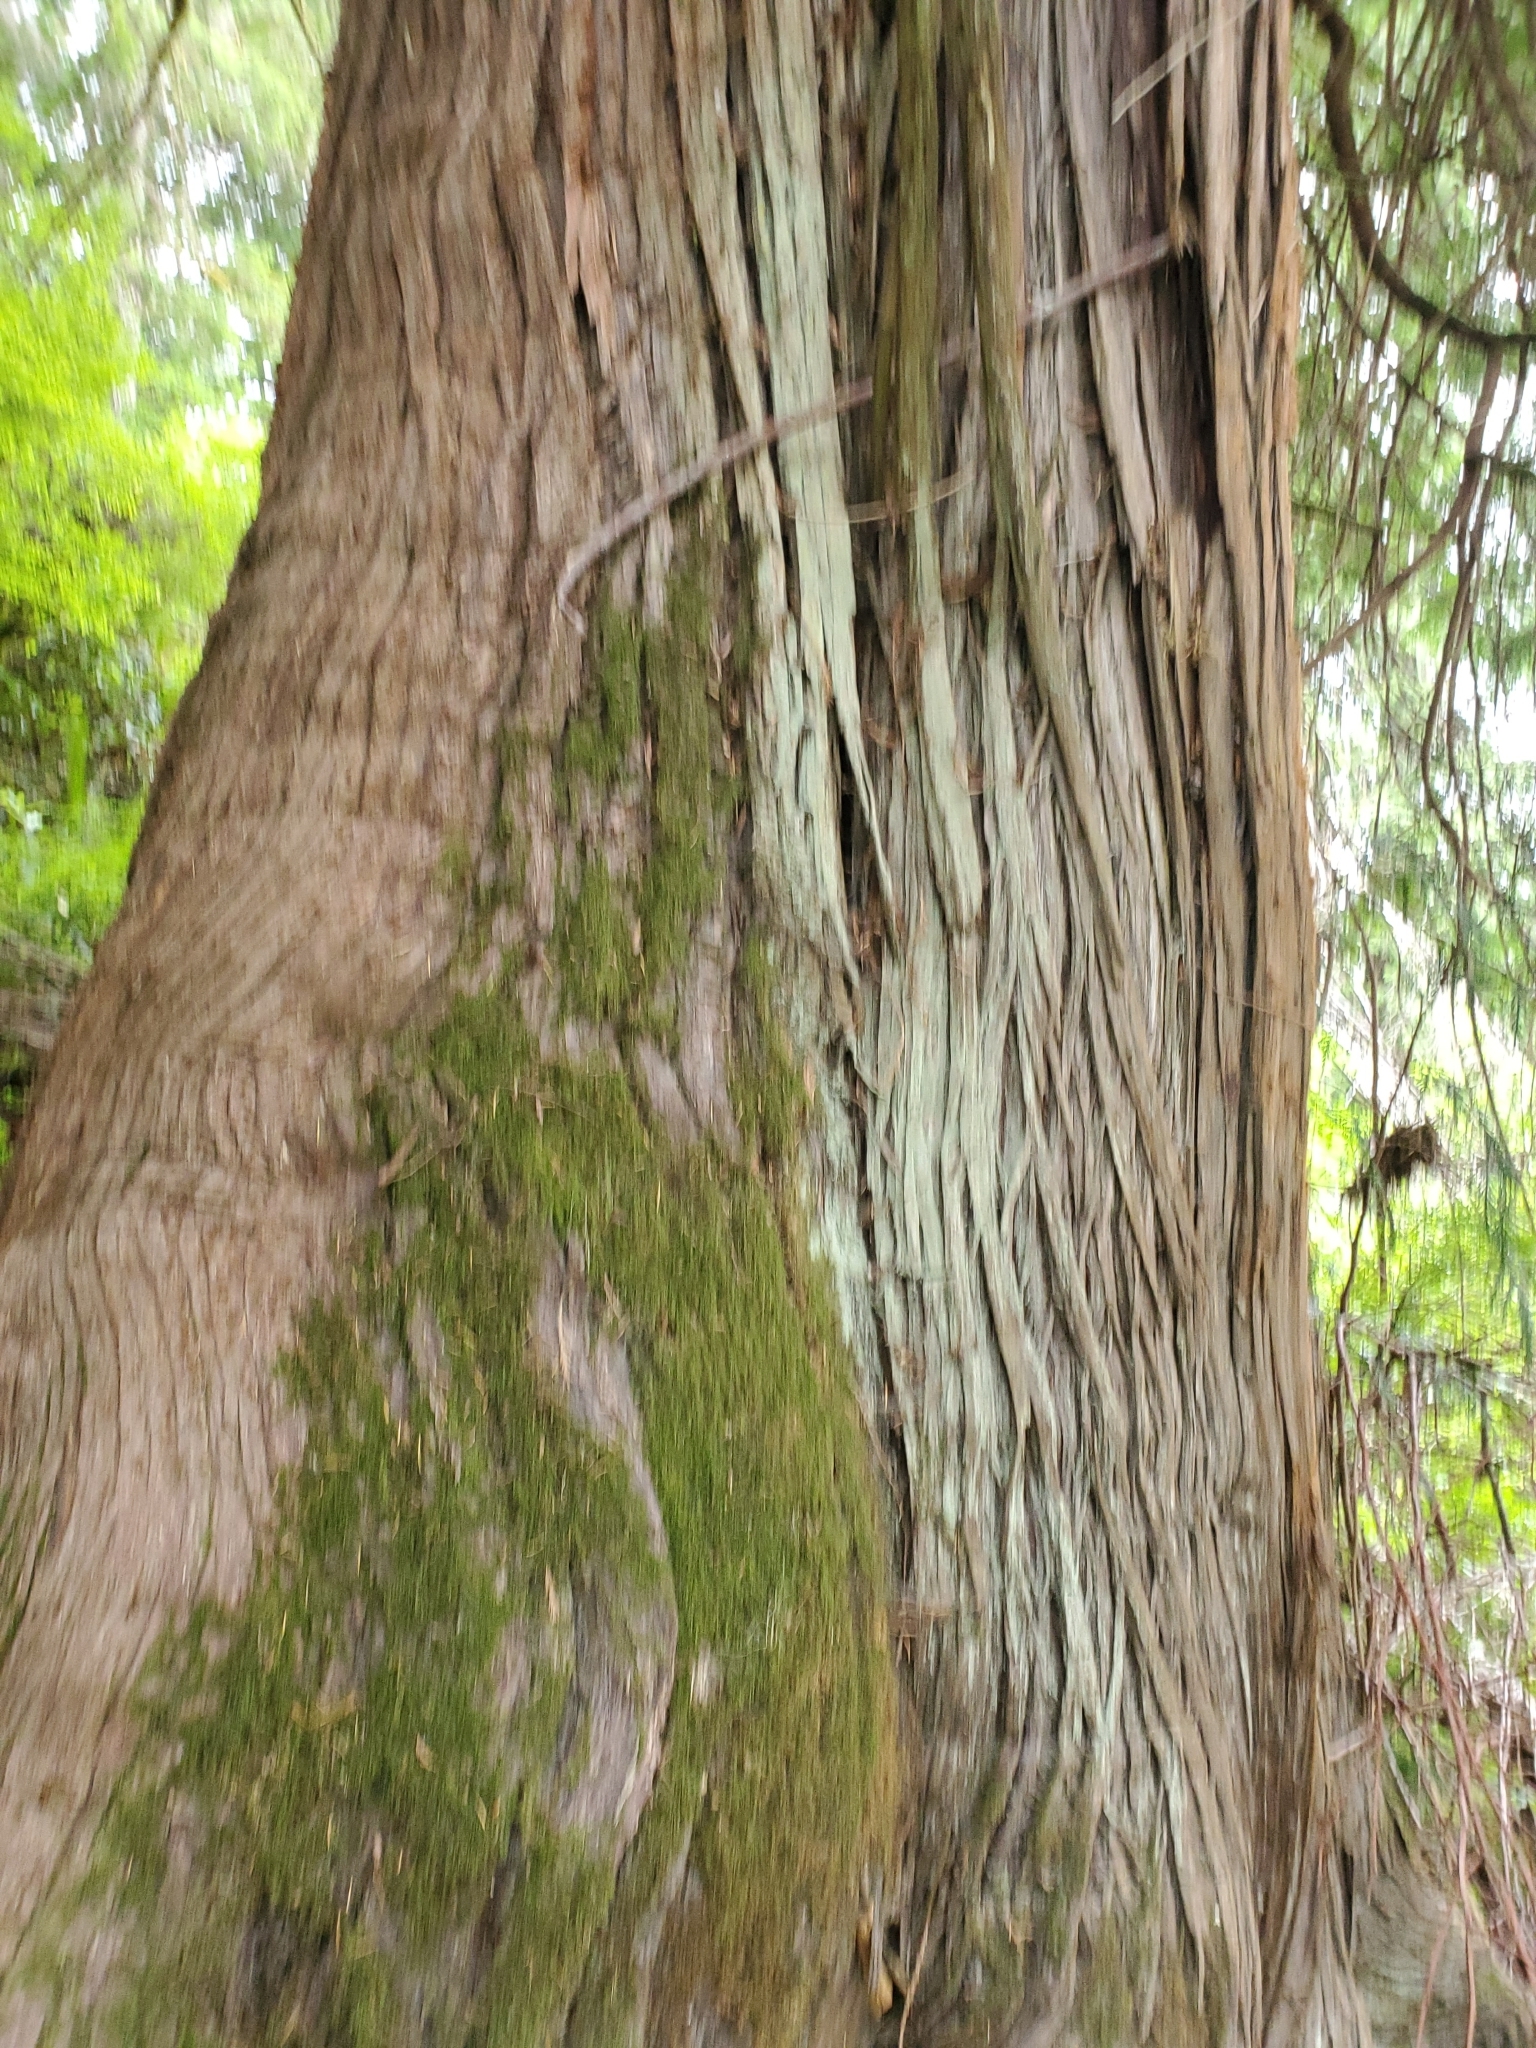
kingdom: Plantae
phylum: Tracheophyta
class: Pinopsida
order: Pinales
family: Cupressaceae
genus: Thuja
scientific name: Thuja plicata
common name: Western red-cedar
